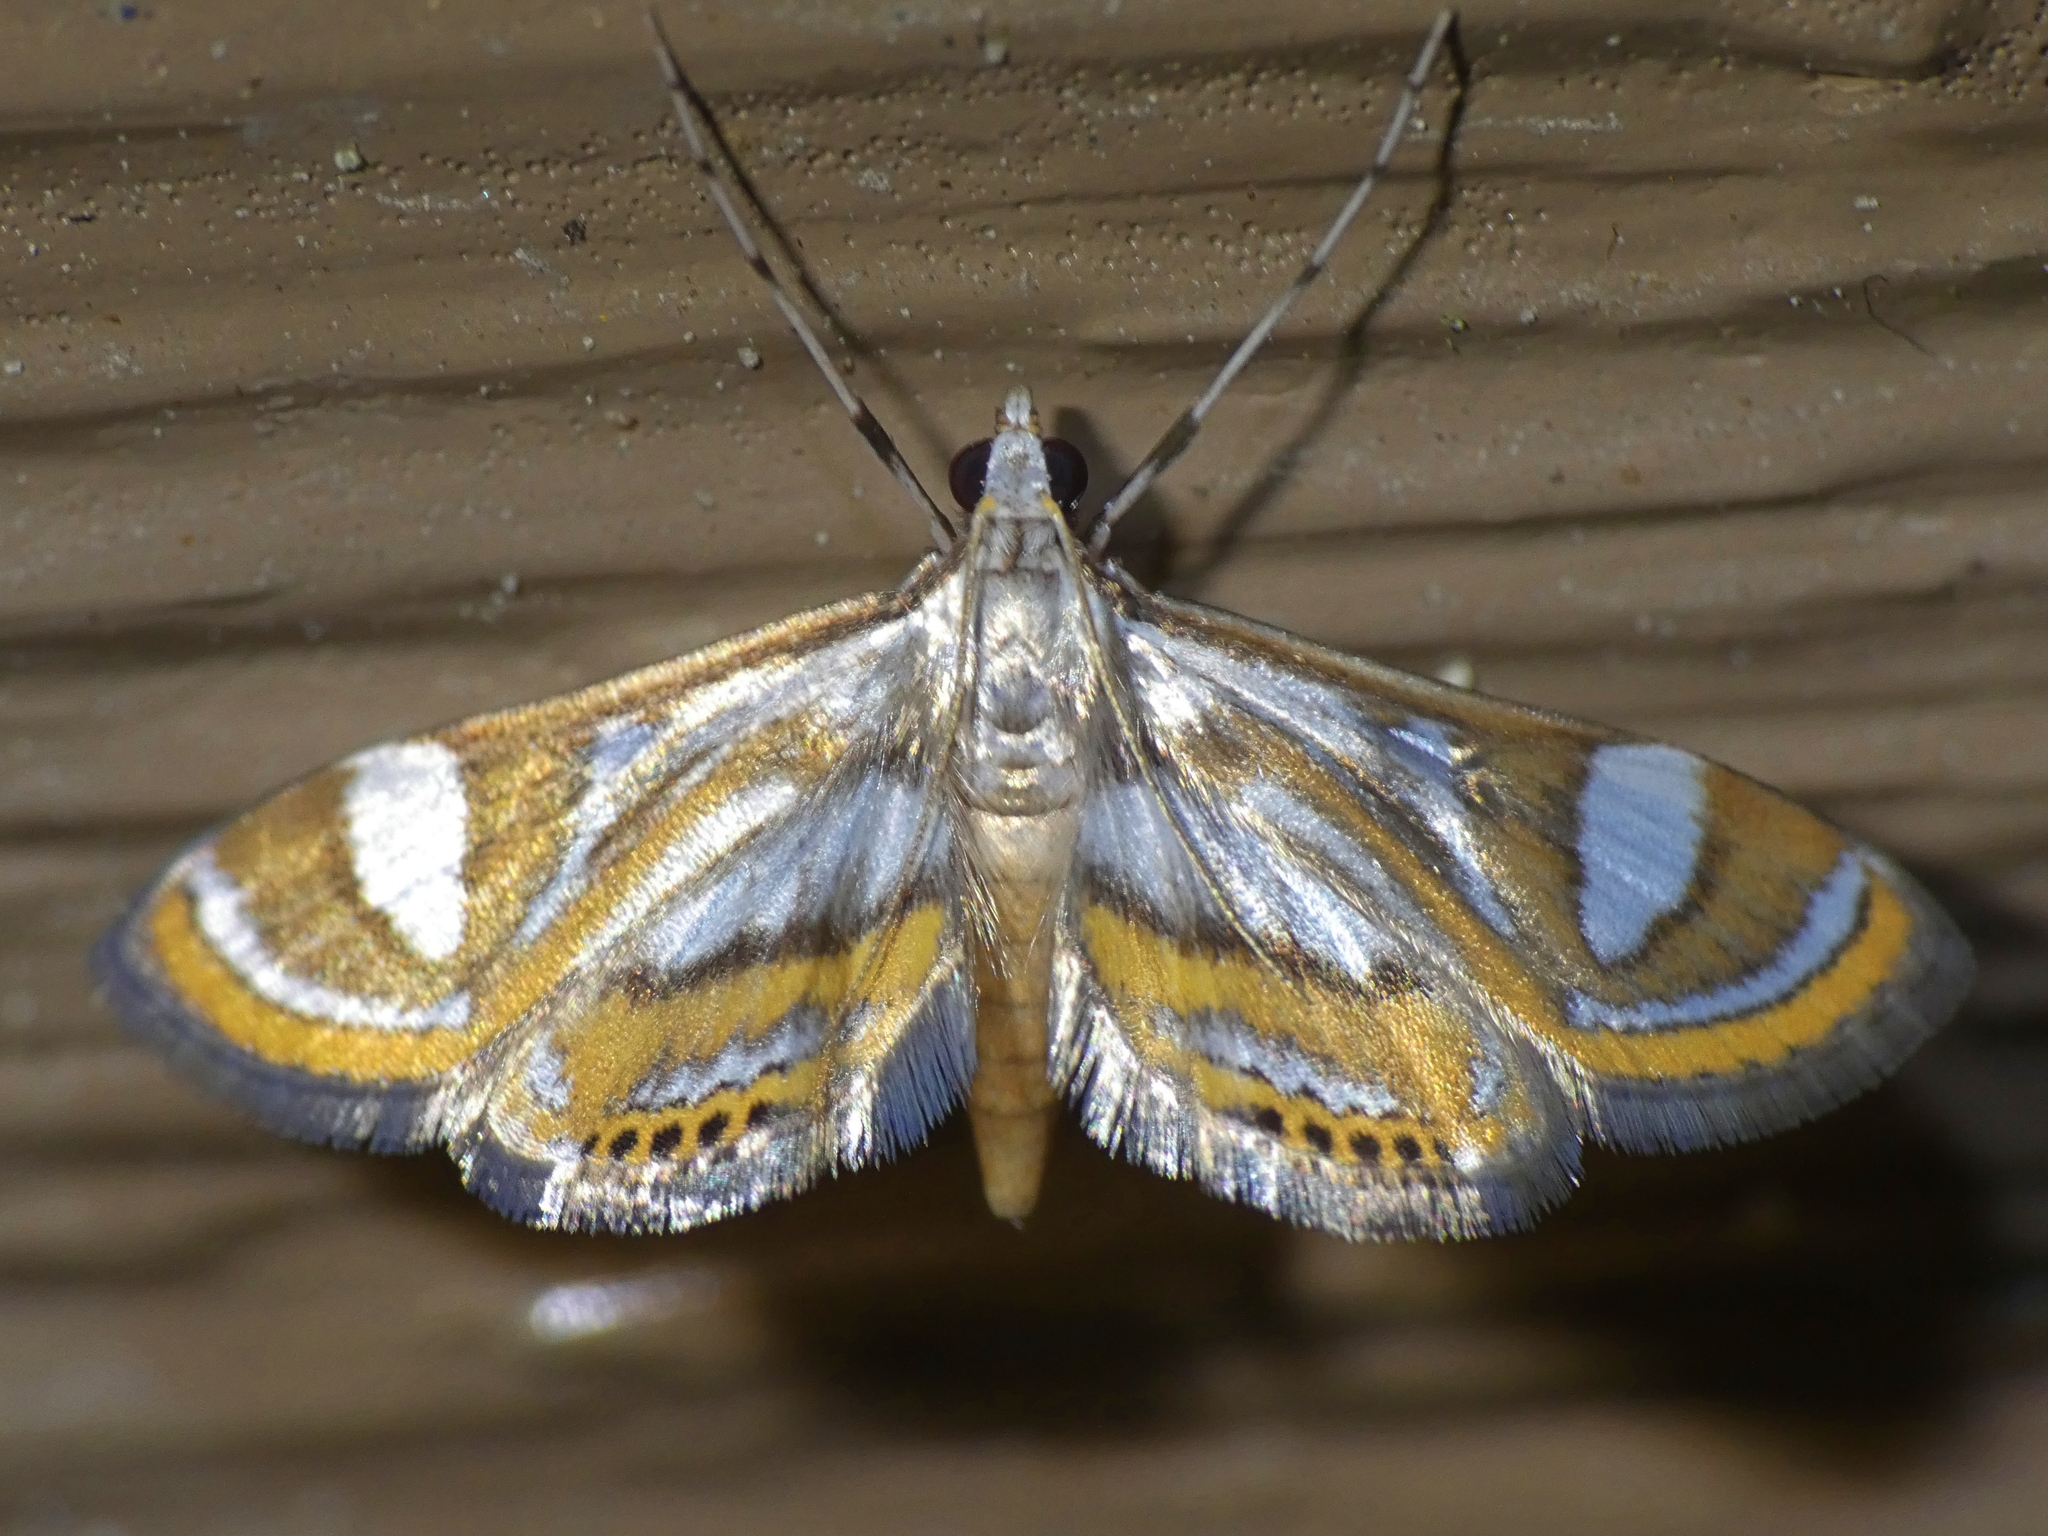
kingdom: Animalia
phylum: Arthropoda
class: Insecta
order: Lepidoptera
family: Crambidae
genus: Strepsinoma
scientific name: Strepsinoma croesusalis
